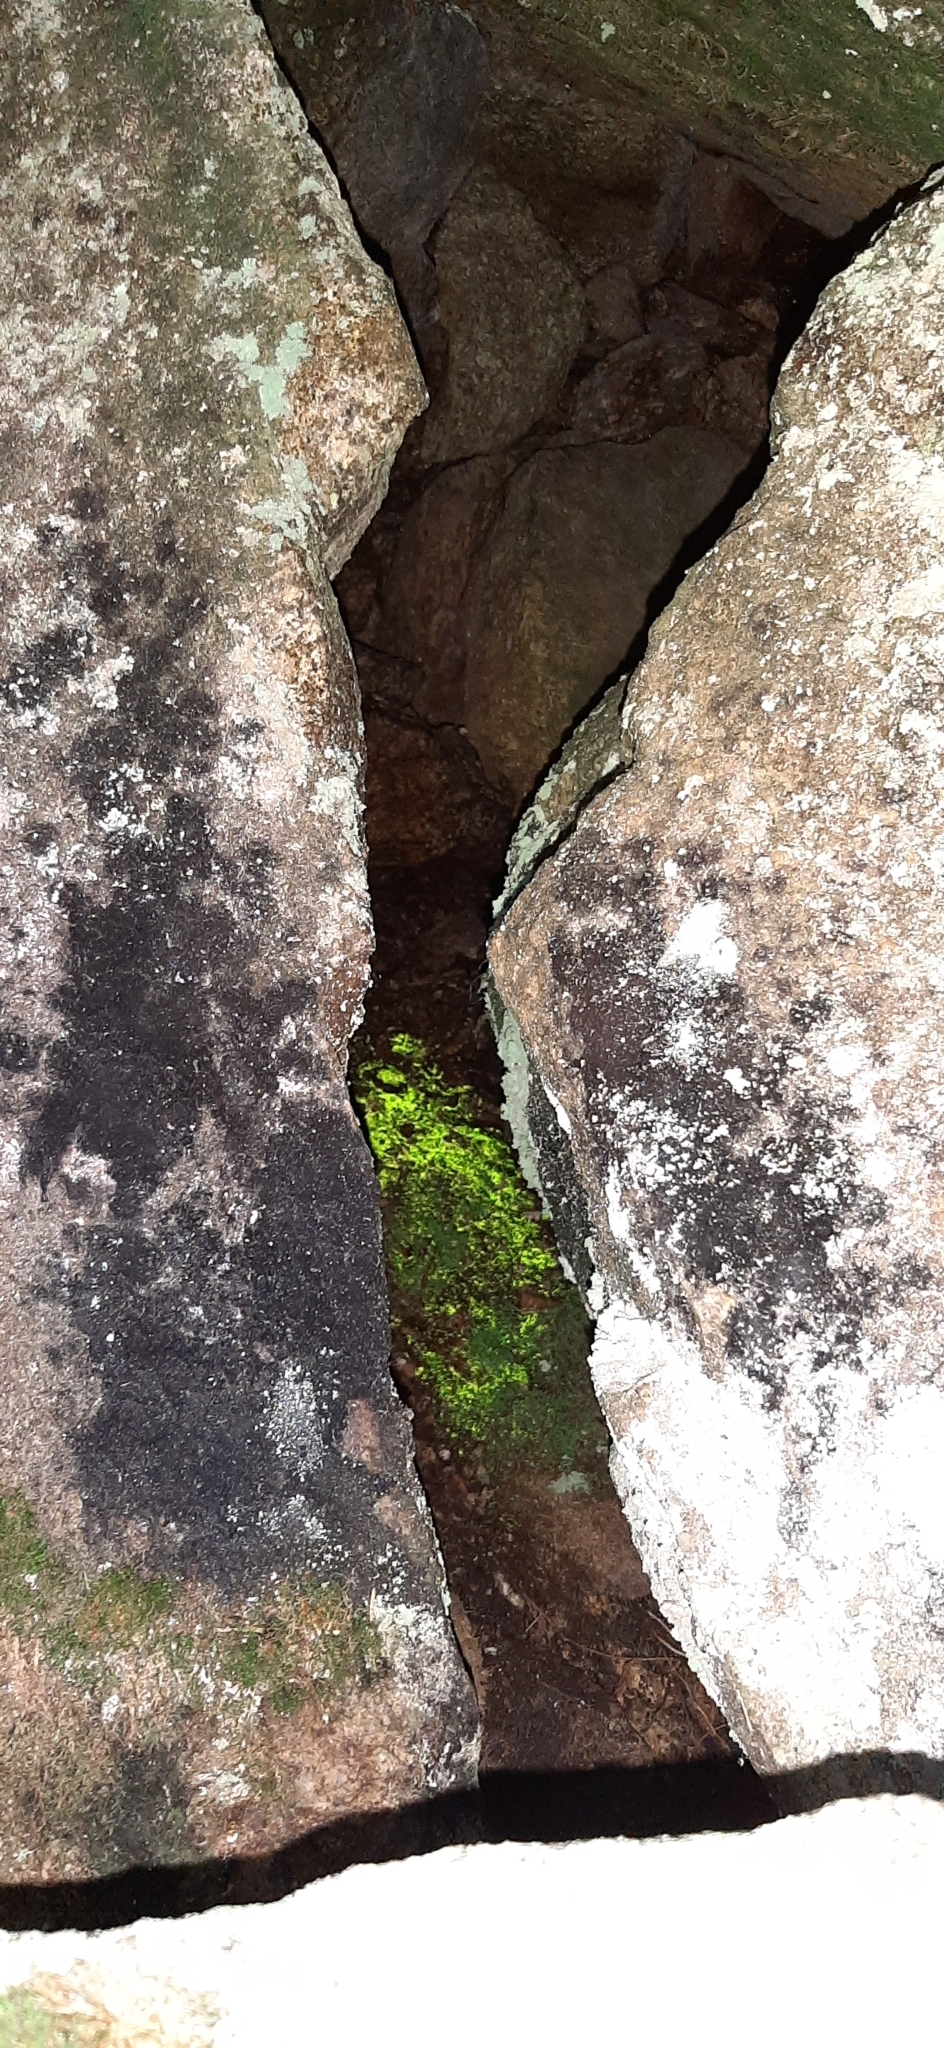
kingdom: Plantae
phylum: Bryophyta
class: Bryopsida
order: Dicranales
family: Schistostegaceae
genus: Schistostega
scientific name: Schistostega pennata
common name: Luminous moss
